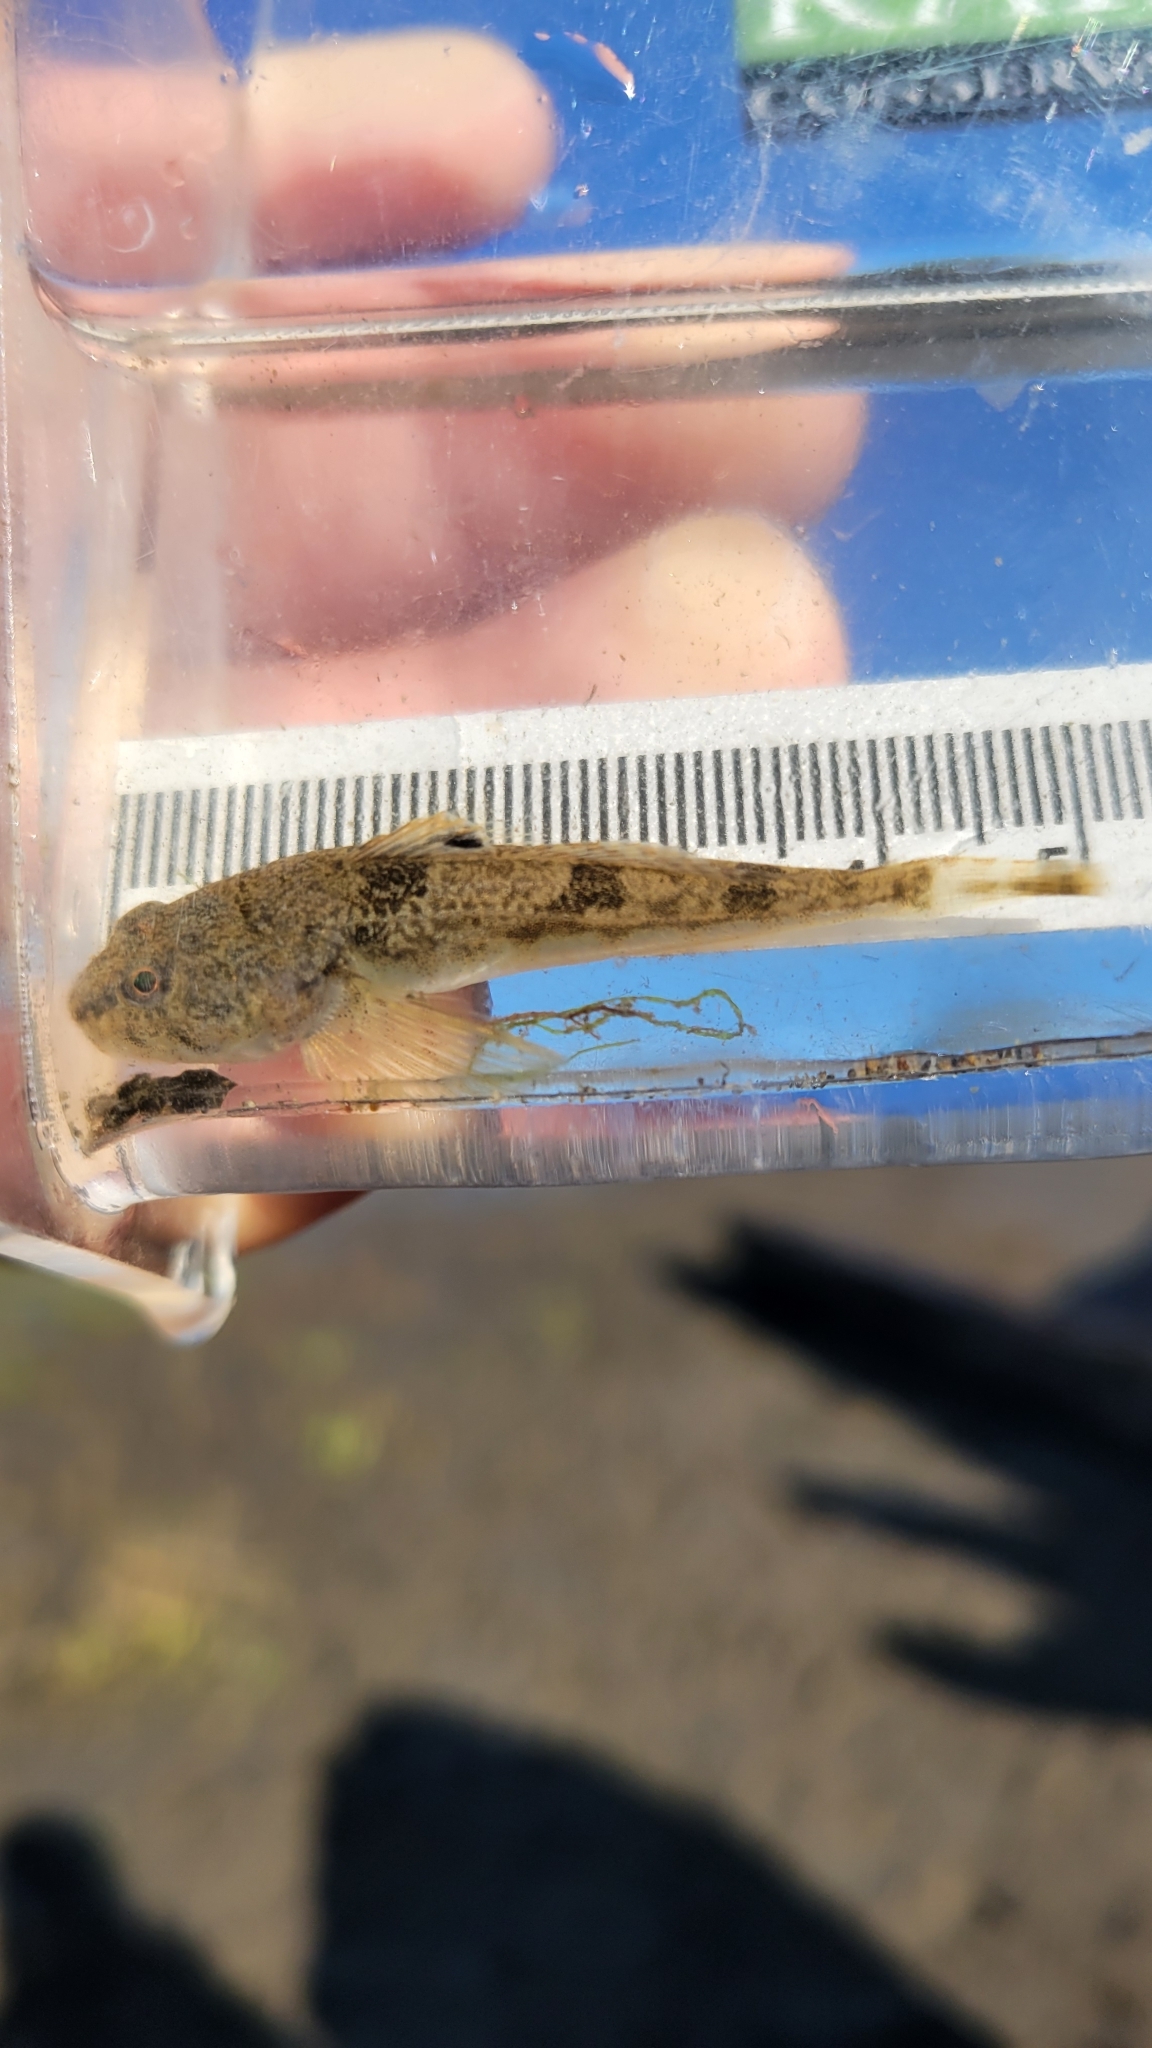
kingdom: Animalia
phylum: Chordata
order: Scorpaeniformes
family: Cottidae
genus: Leptocottus
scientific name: Leptocottus armatus
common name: Pacific staghorn sculpin
